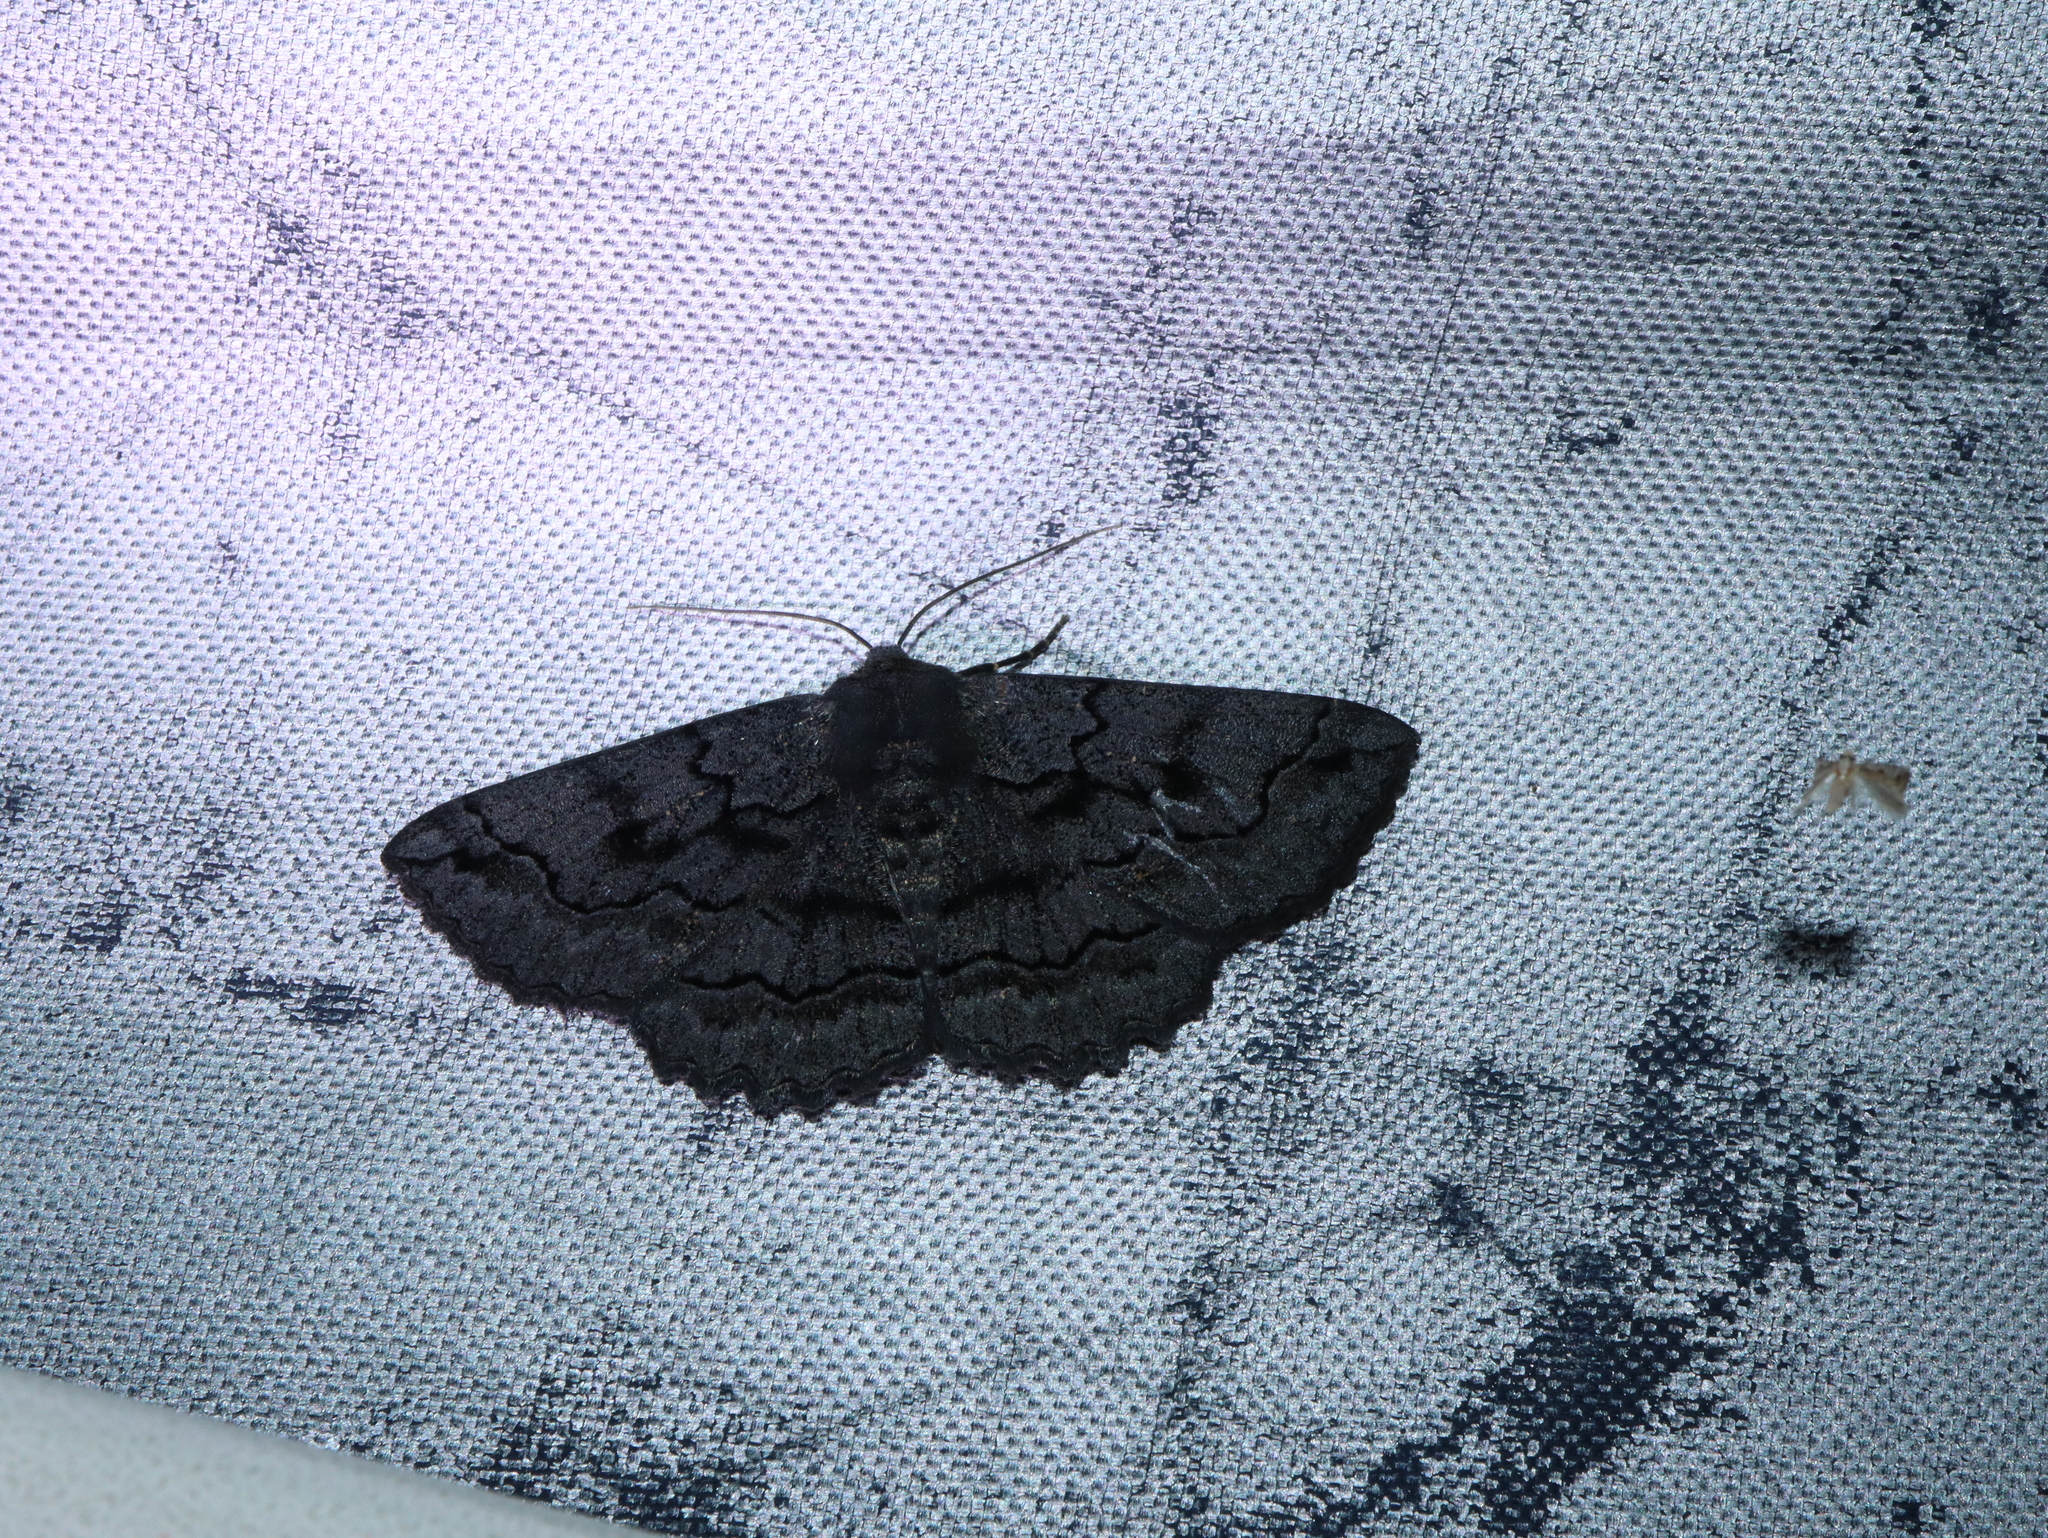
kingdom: Animalia
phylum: Arthropoda
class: Insecta
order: Lepidoptera
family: Geometridae
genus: Melanodes
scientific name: Melanodes anthracitaria
